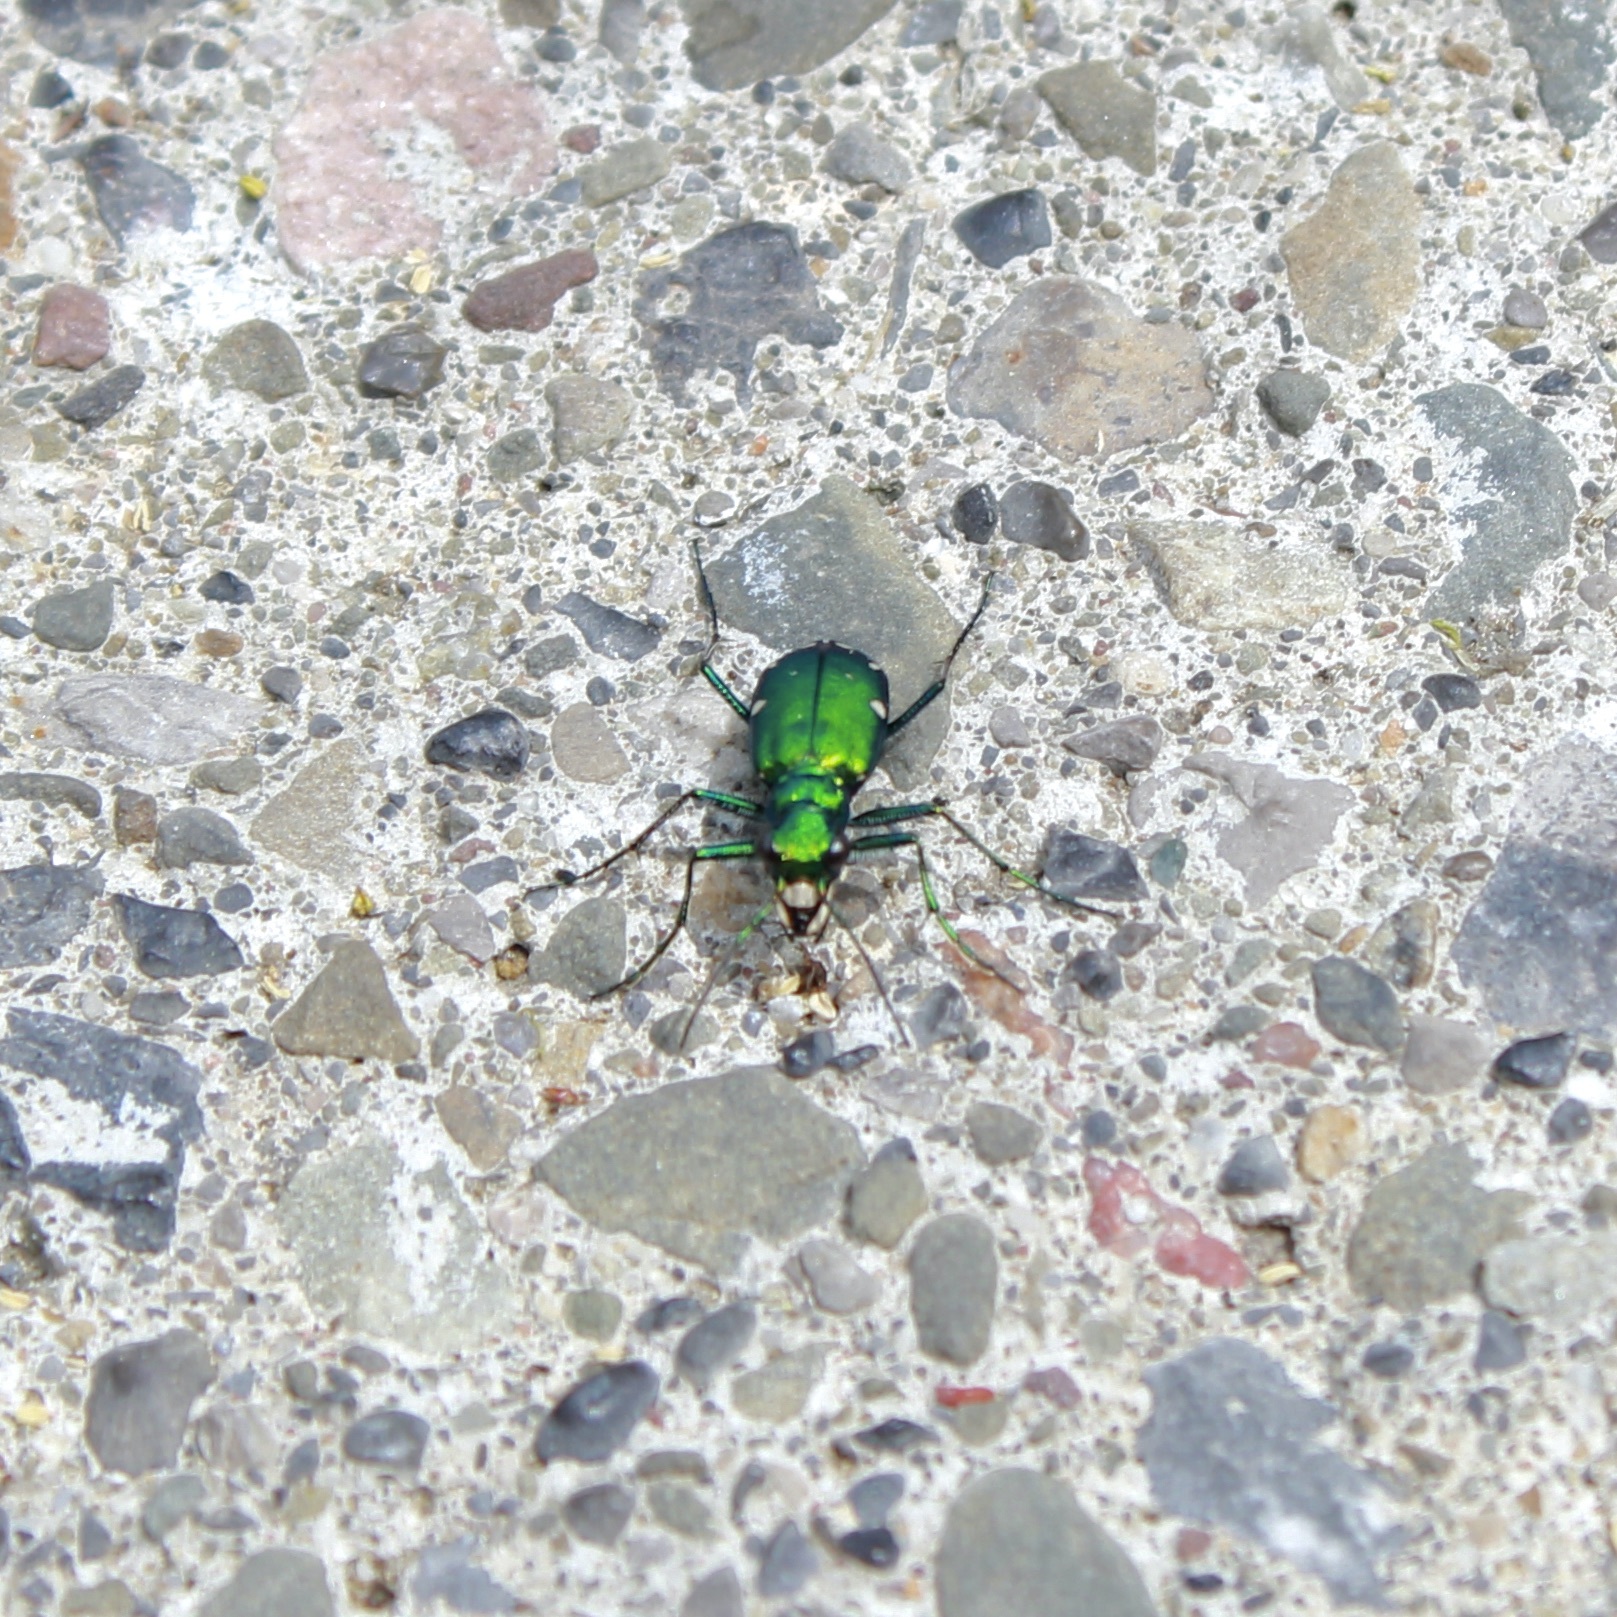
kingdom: Animalia
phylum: Arthropoda
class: Insecta
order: Coleoptera
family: Carabidae
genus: Cicindela
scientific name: Cicindela sexguttata
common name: Six-spotted tiger beetle
